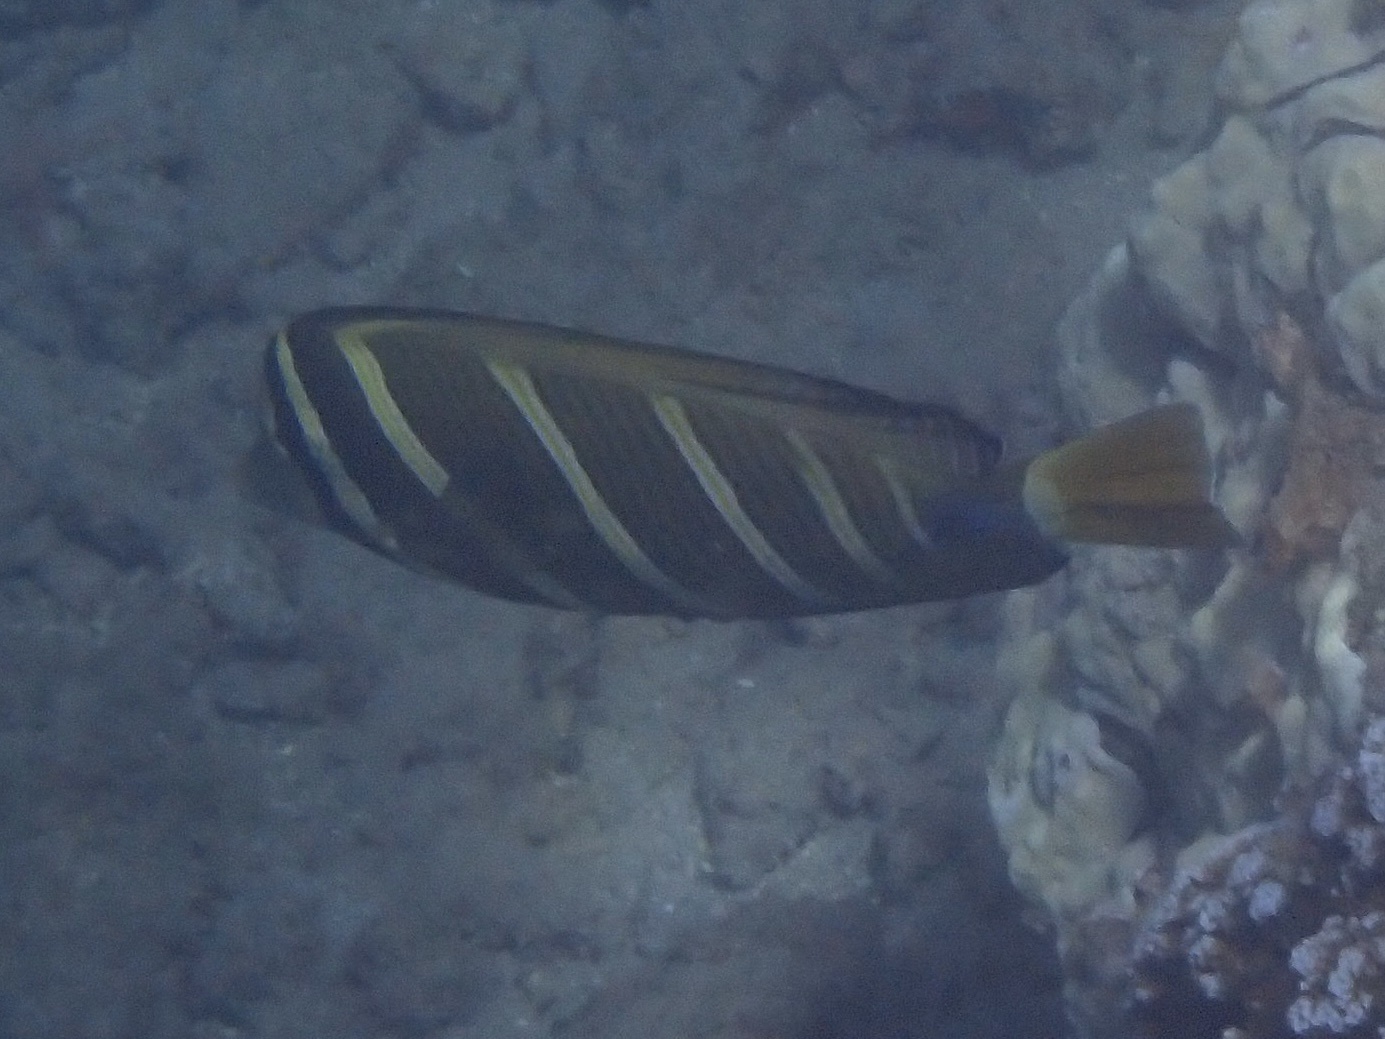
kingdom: Animalia
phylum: Chordata
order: Perciformes
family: Acanthuridae
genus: Zebrasoma
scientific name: Zebrasoma veliferum
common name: Sailfin surgeonfish
